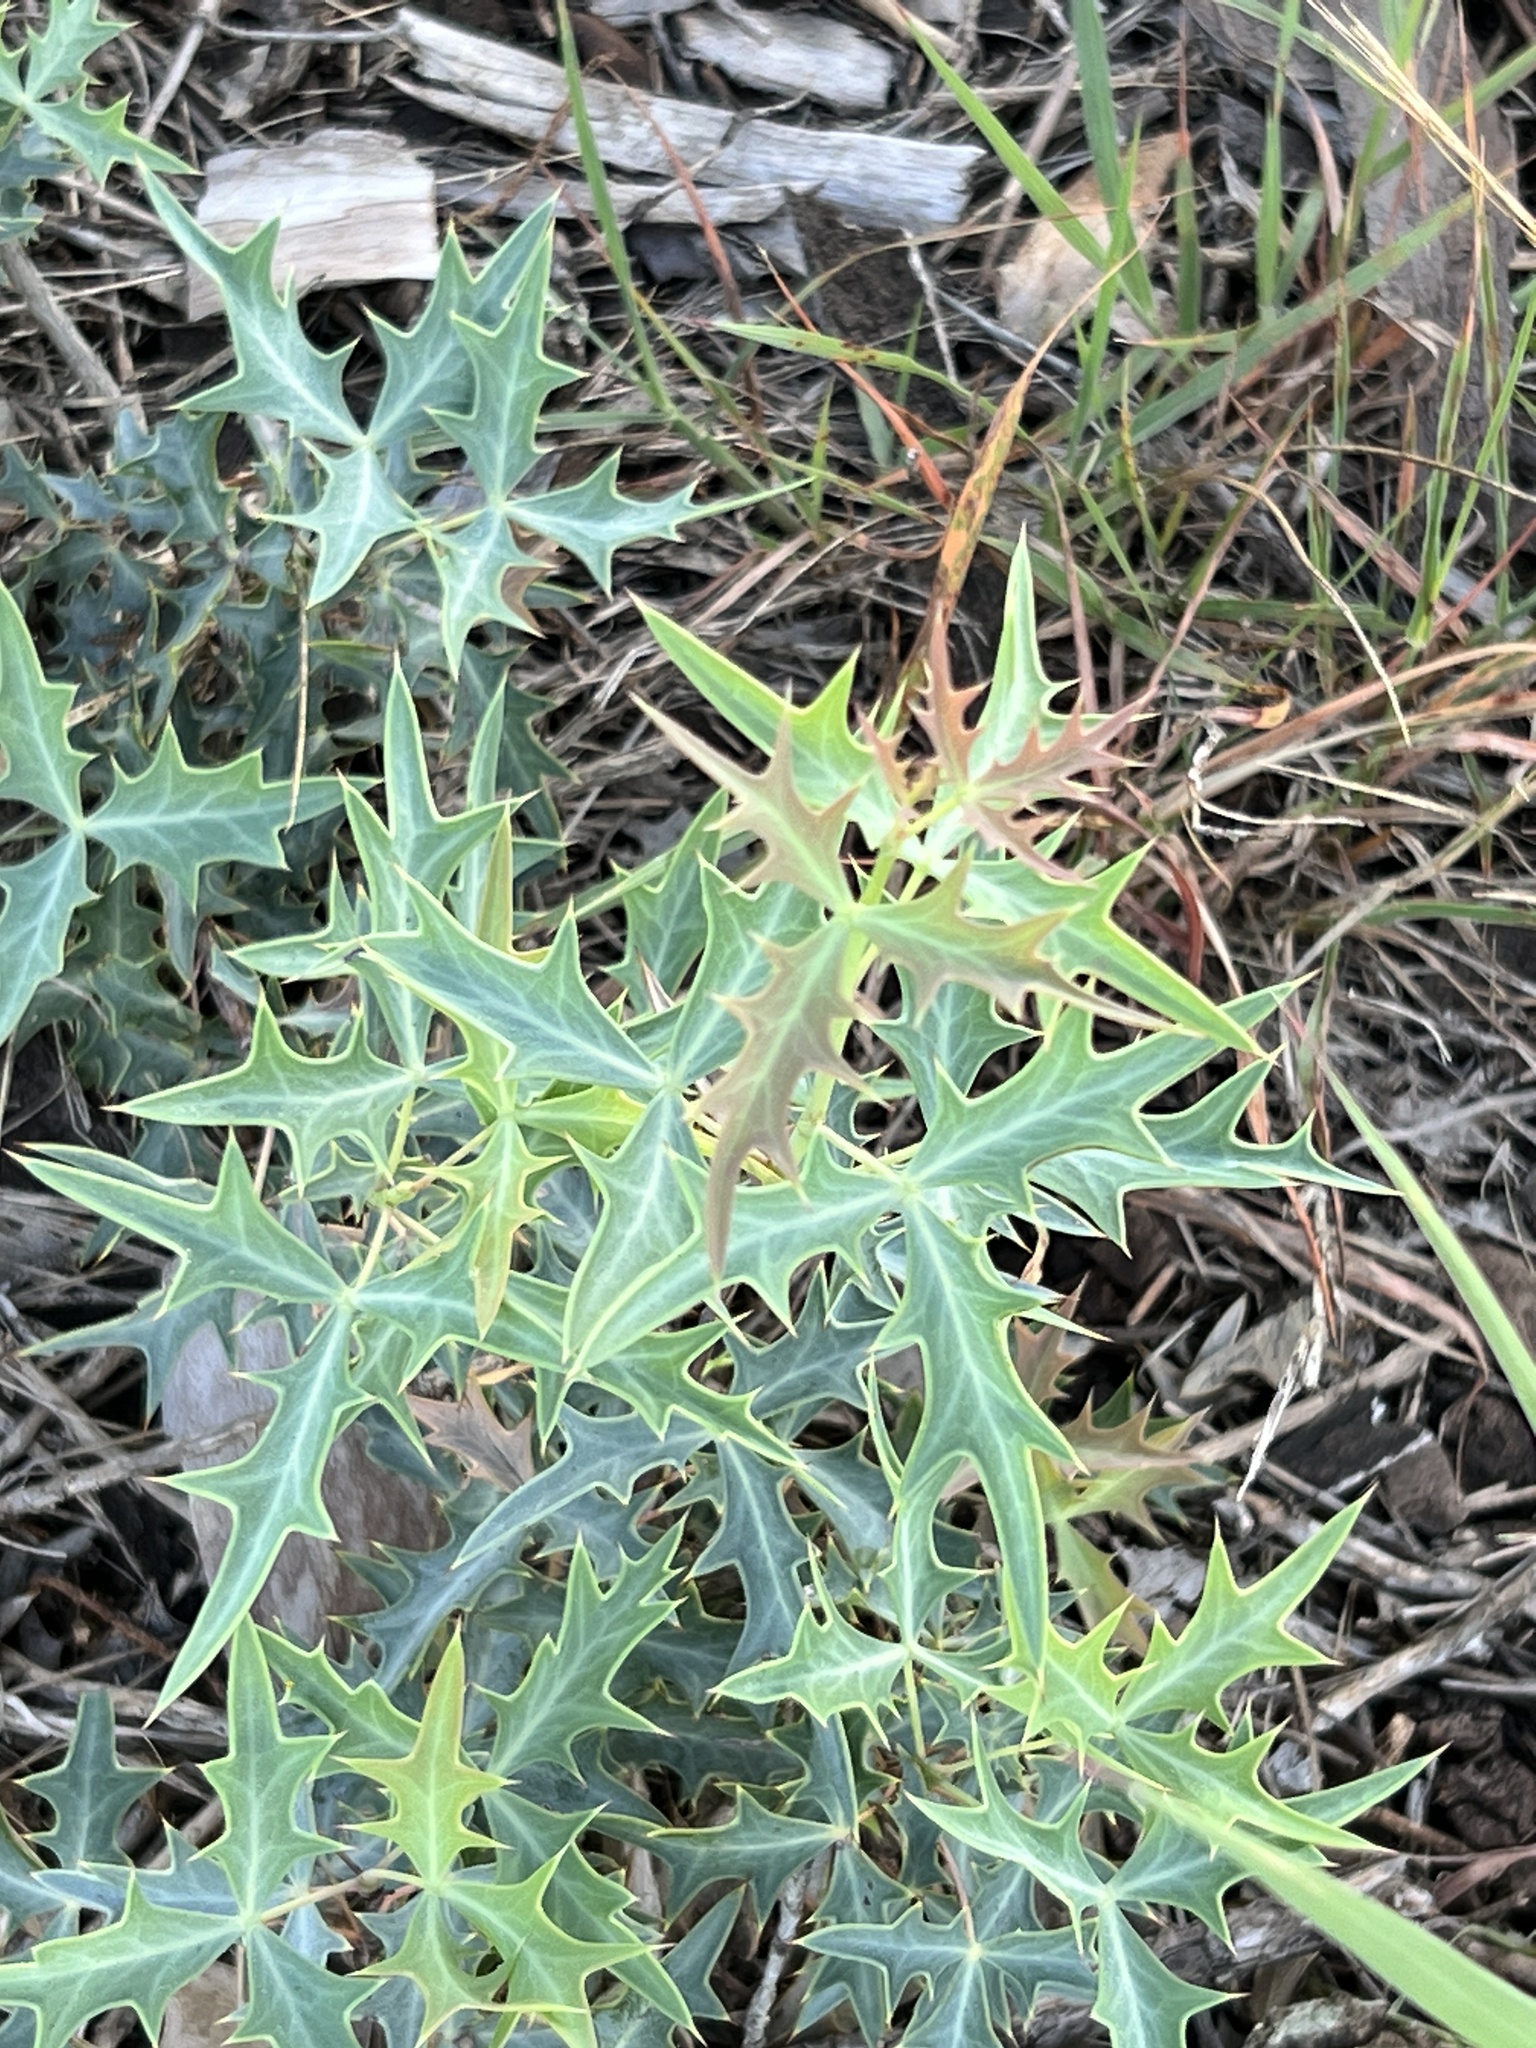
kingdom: Plantae
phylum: Tracheophyta
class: Magnoliopsida
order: Ranunculales
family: Berberidaceae
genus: Alloberberis
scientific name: Alloberberis trifoliolata
